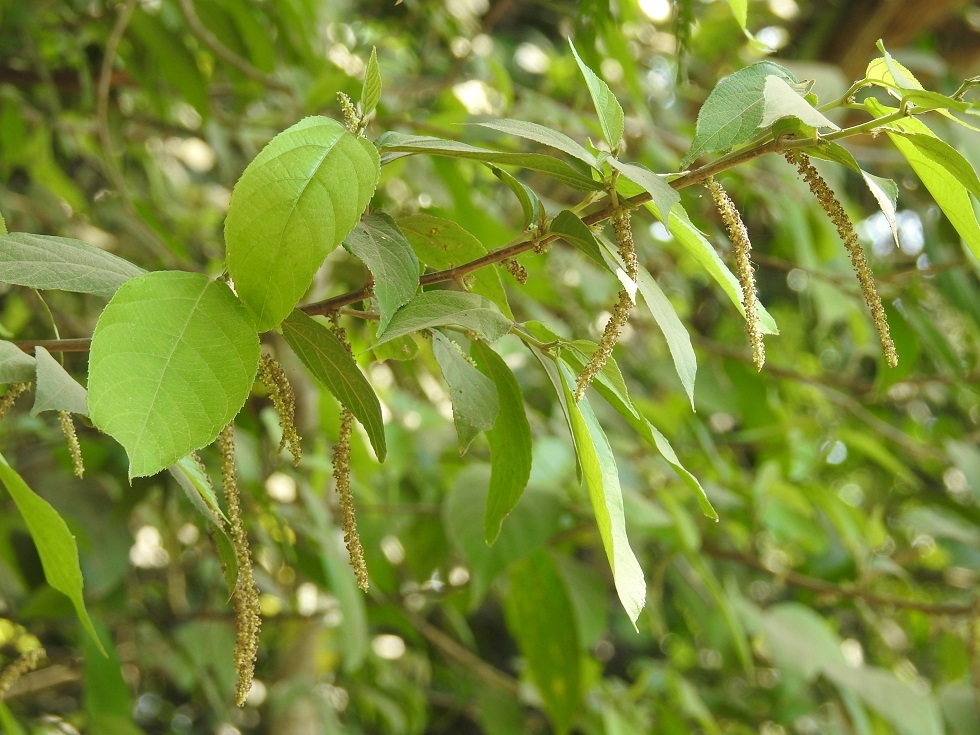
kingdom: Plantae
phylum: Tracheophyta
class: Magnoliopsida
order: Malpighiales
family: Euphorbiaceae
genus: Acalypha
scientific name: Acalypha diversifolia
